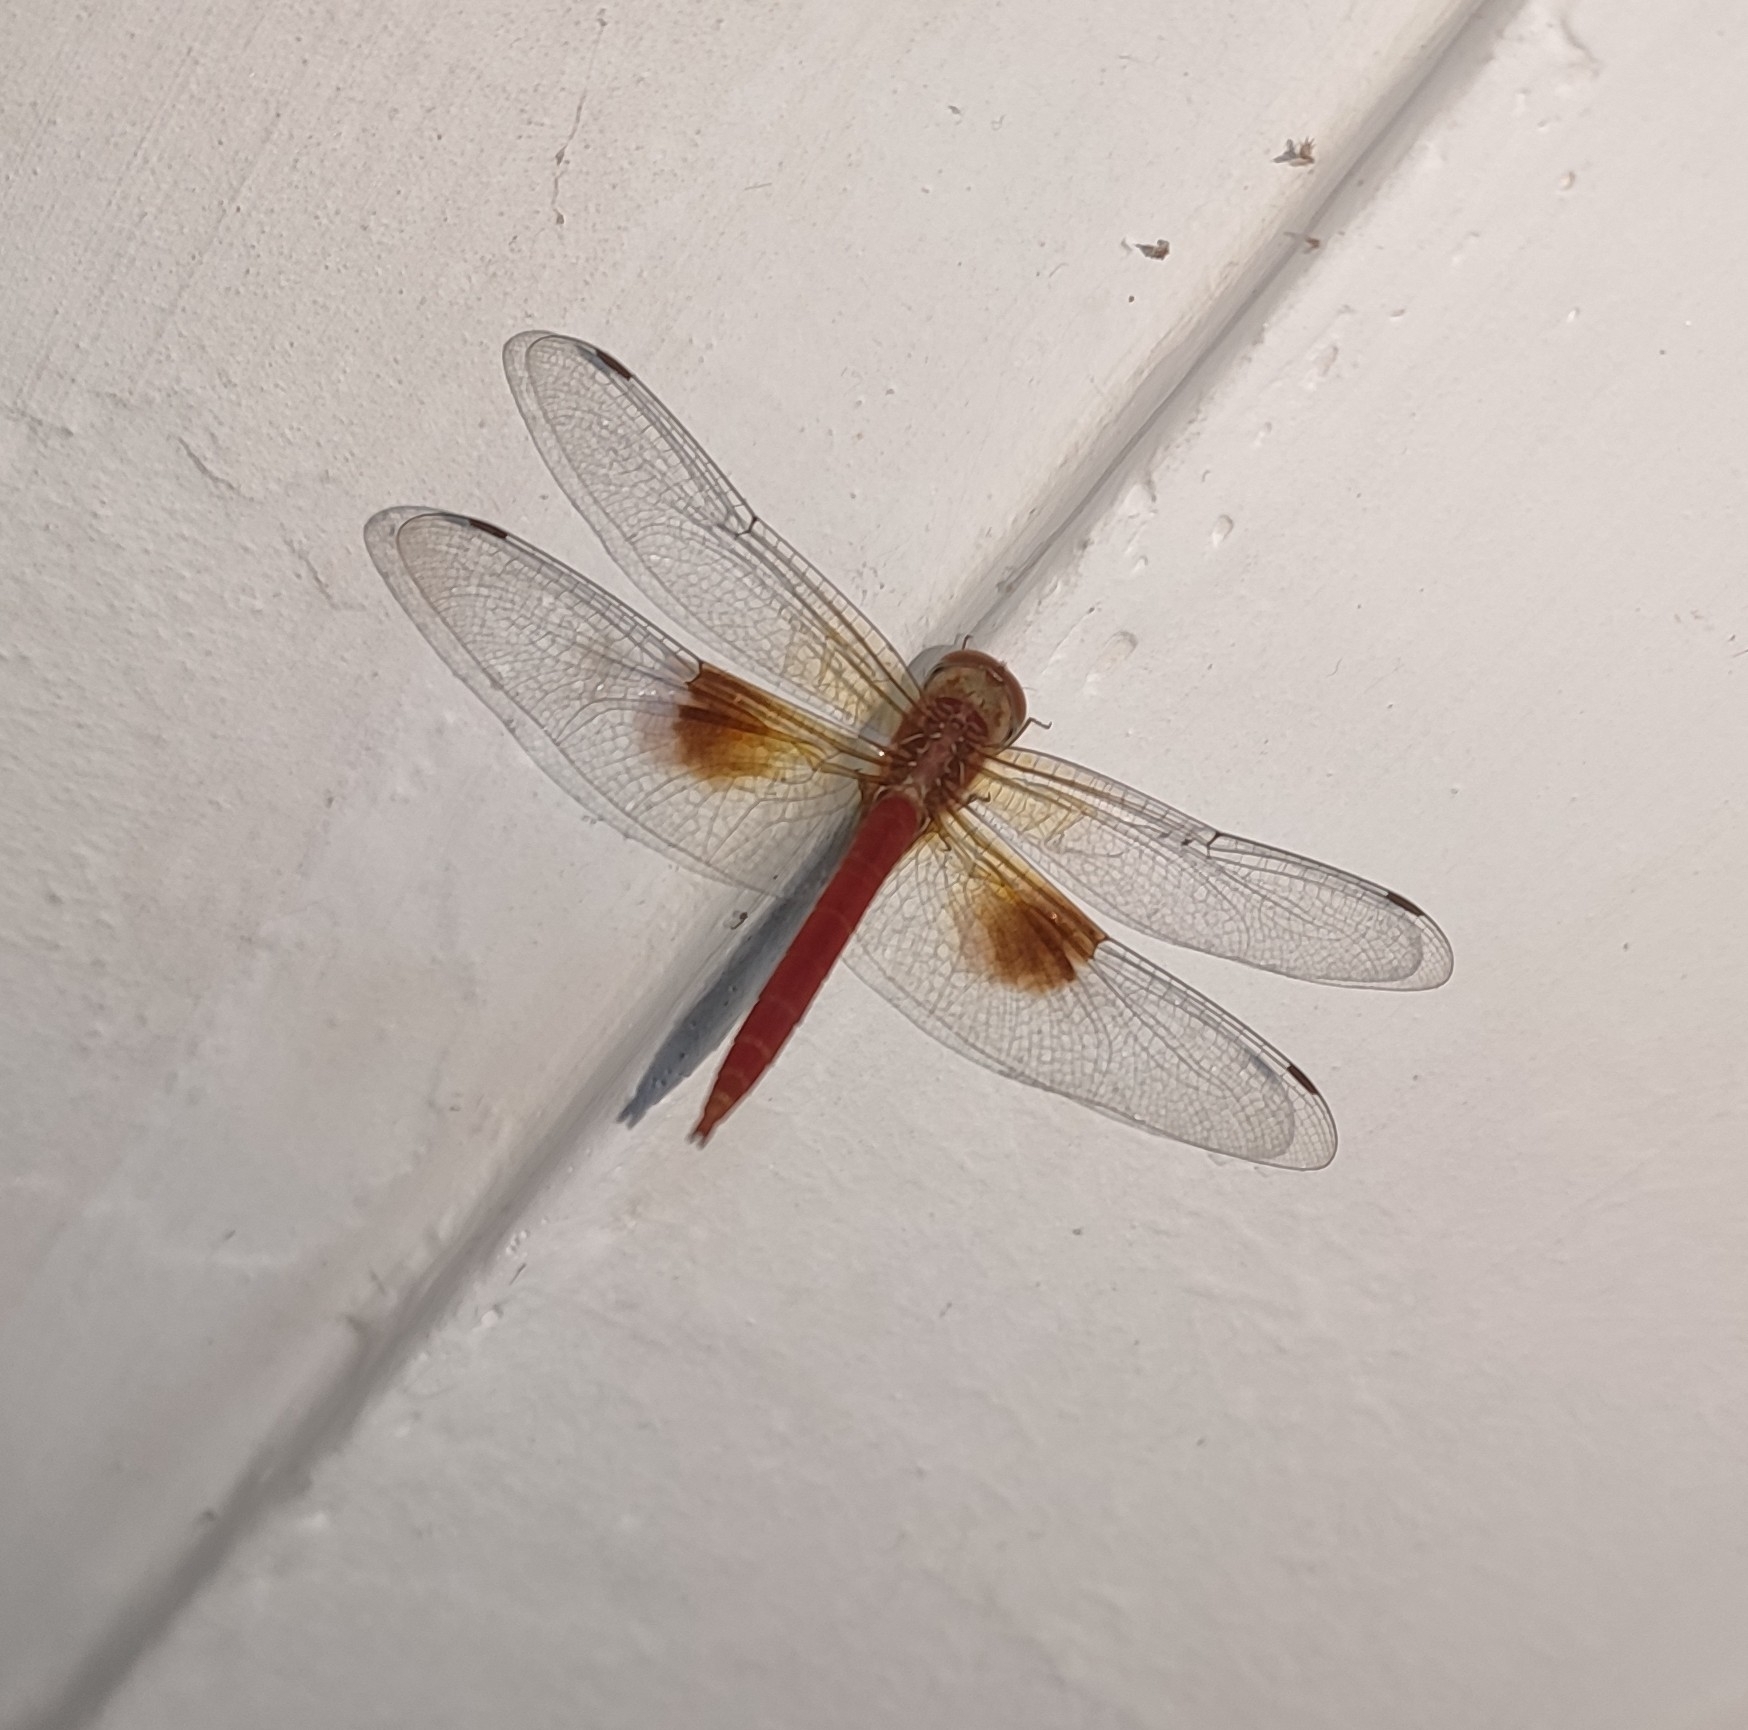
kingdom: Animalia
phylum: Arthropoda
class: Insecta
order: Odonata
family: Libellulidae
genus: Tholymis
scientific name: Tholymis tillarga
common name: Coral-tailed cloud wing
